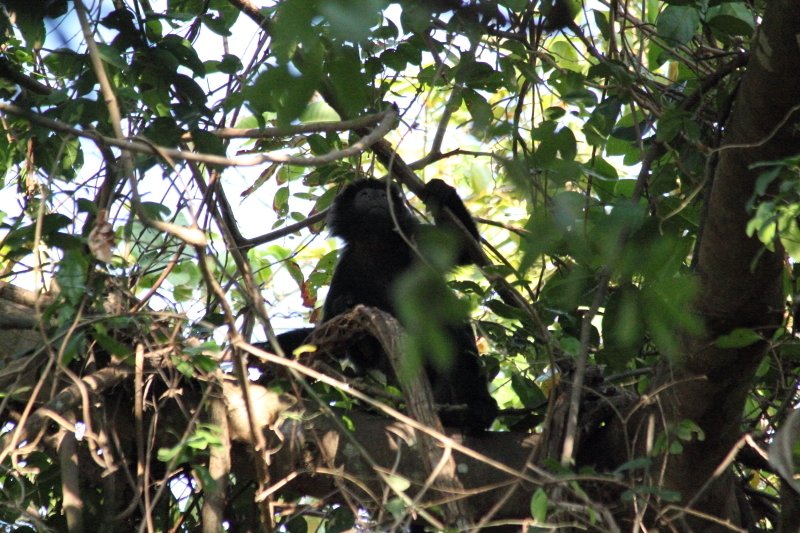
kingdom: Animalia
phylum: Chordata
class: Mammalia
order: Primates
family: Cercopithecidae
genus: Trachypithecus
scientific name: Trachypithecus auratus
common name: Javan lutung
